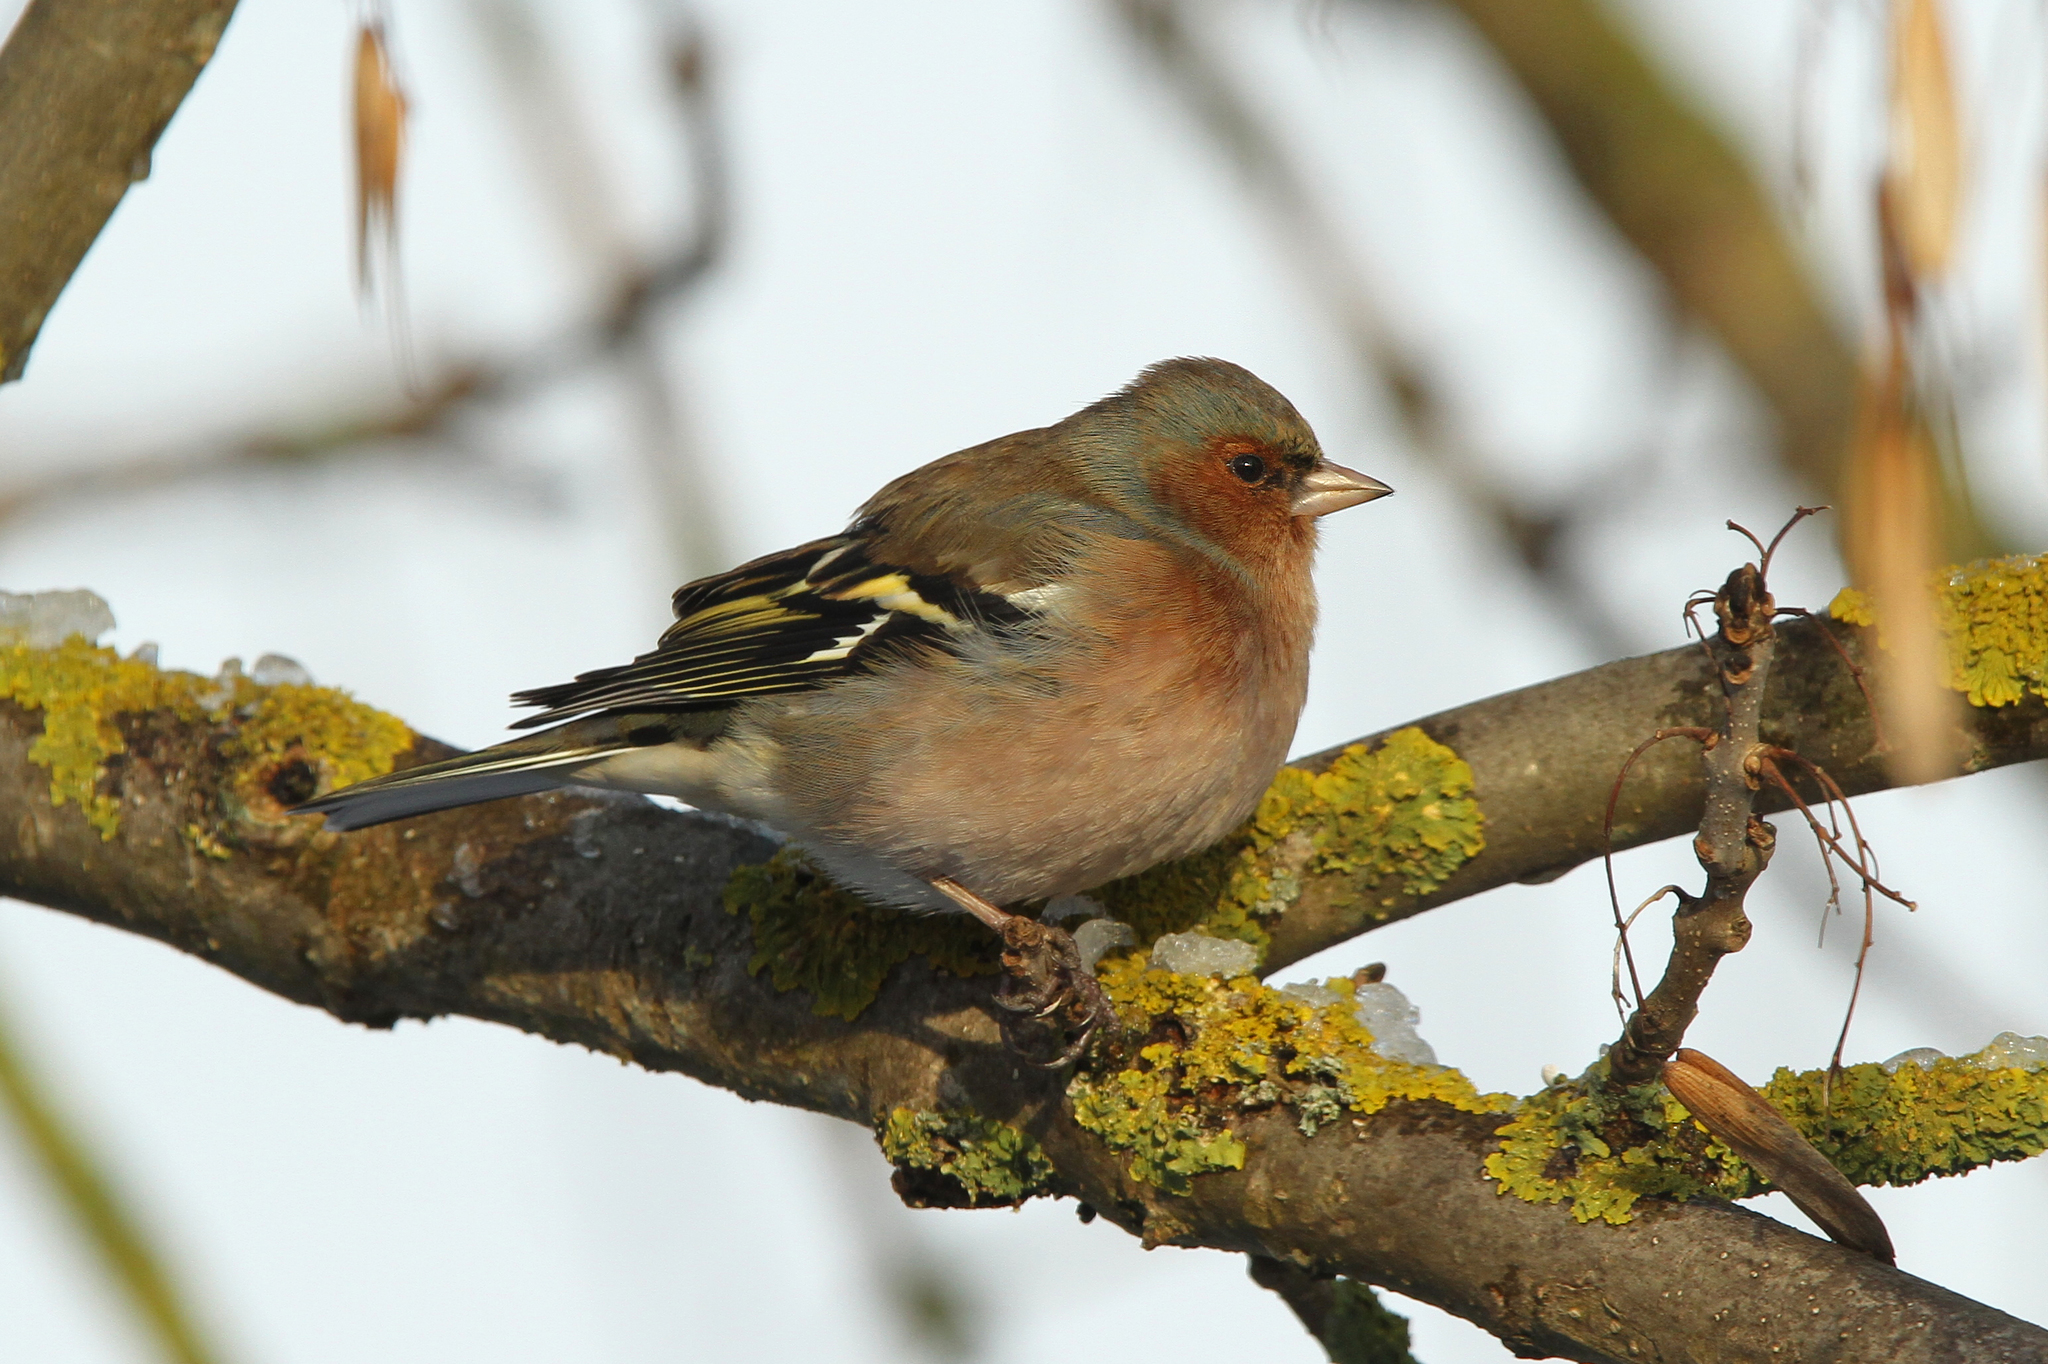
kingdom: Animalia
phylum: Chordata
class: Aves
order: Passeriformes
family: Fringillidae
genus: Fringilla
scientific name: Fringilla coelebs
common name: Common chaffinch
